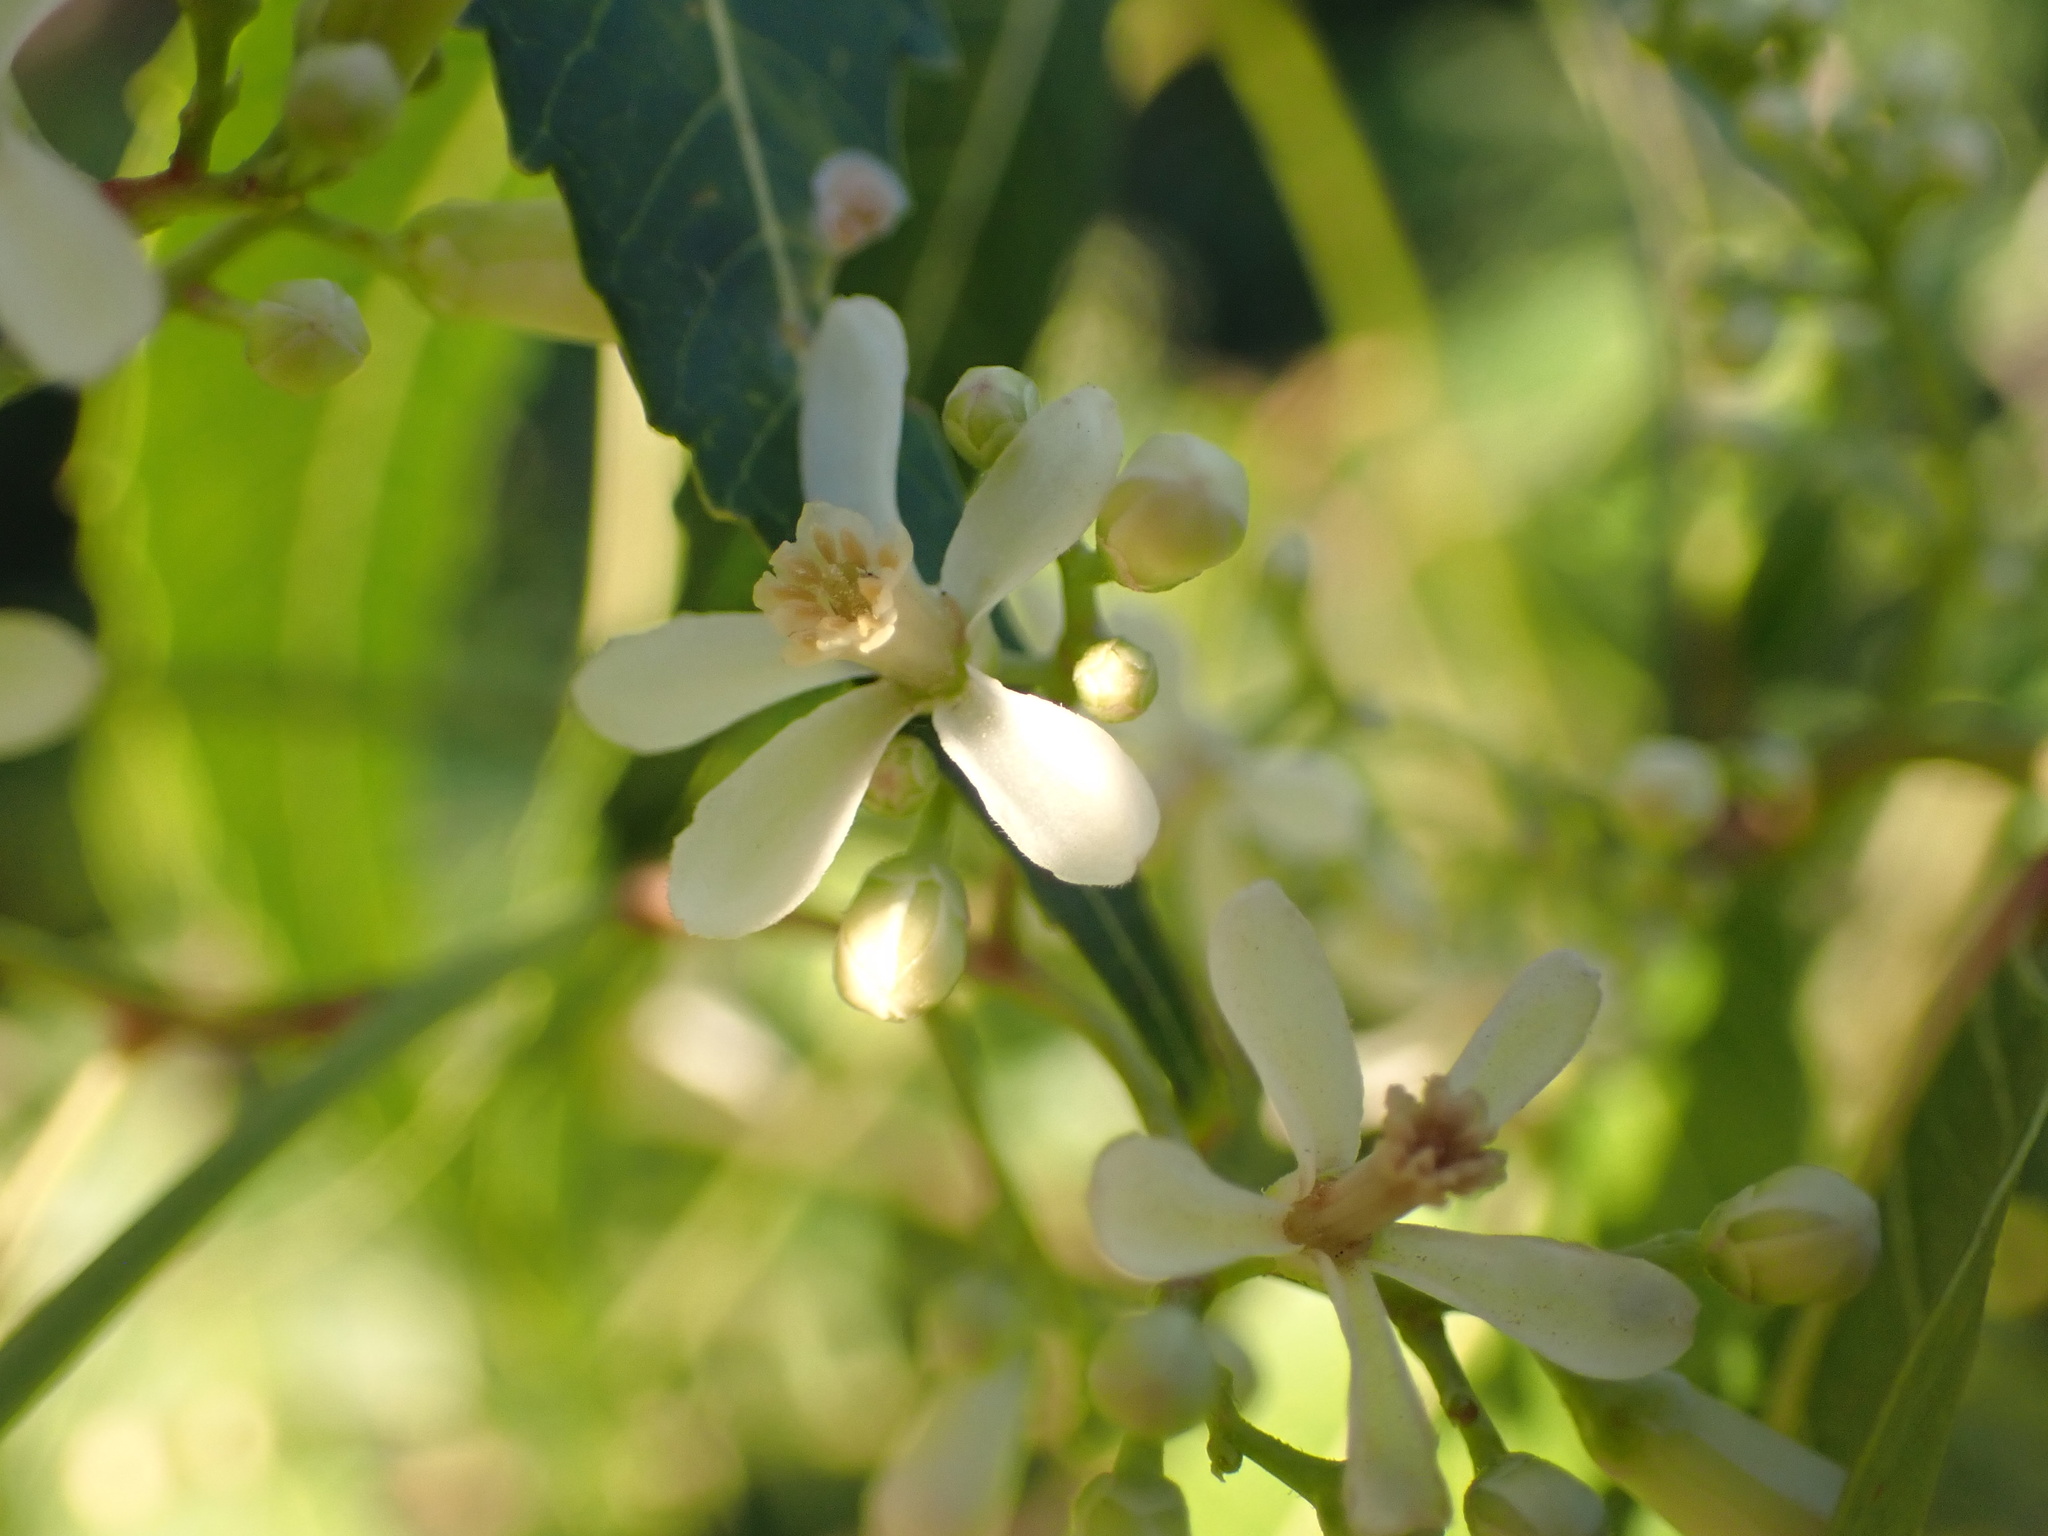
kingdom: Plantae
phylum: Tracheophyta
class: Magnoliopsida
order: Sapindales
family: Meliaceae
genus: Azadirachta
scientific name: Azadirachta indica
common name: Neem
